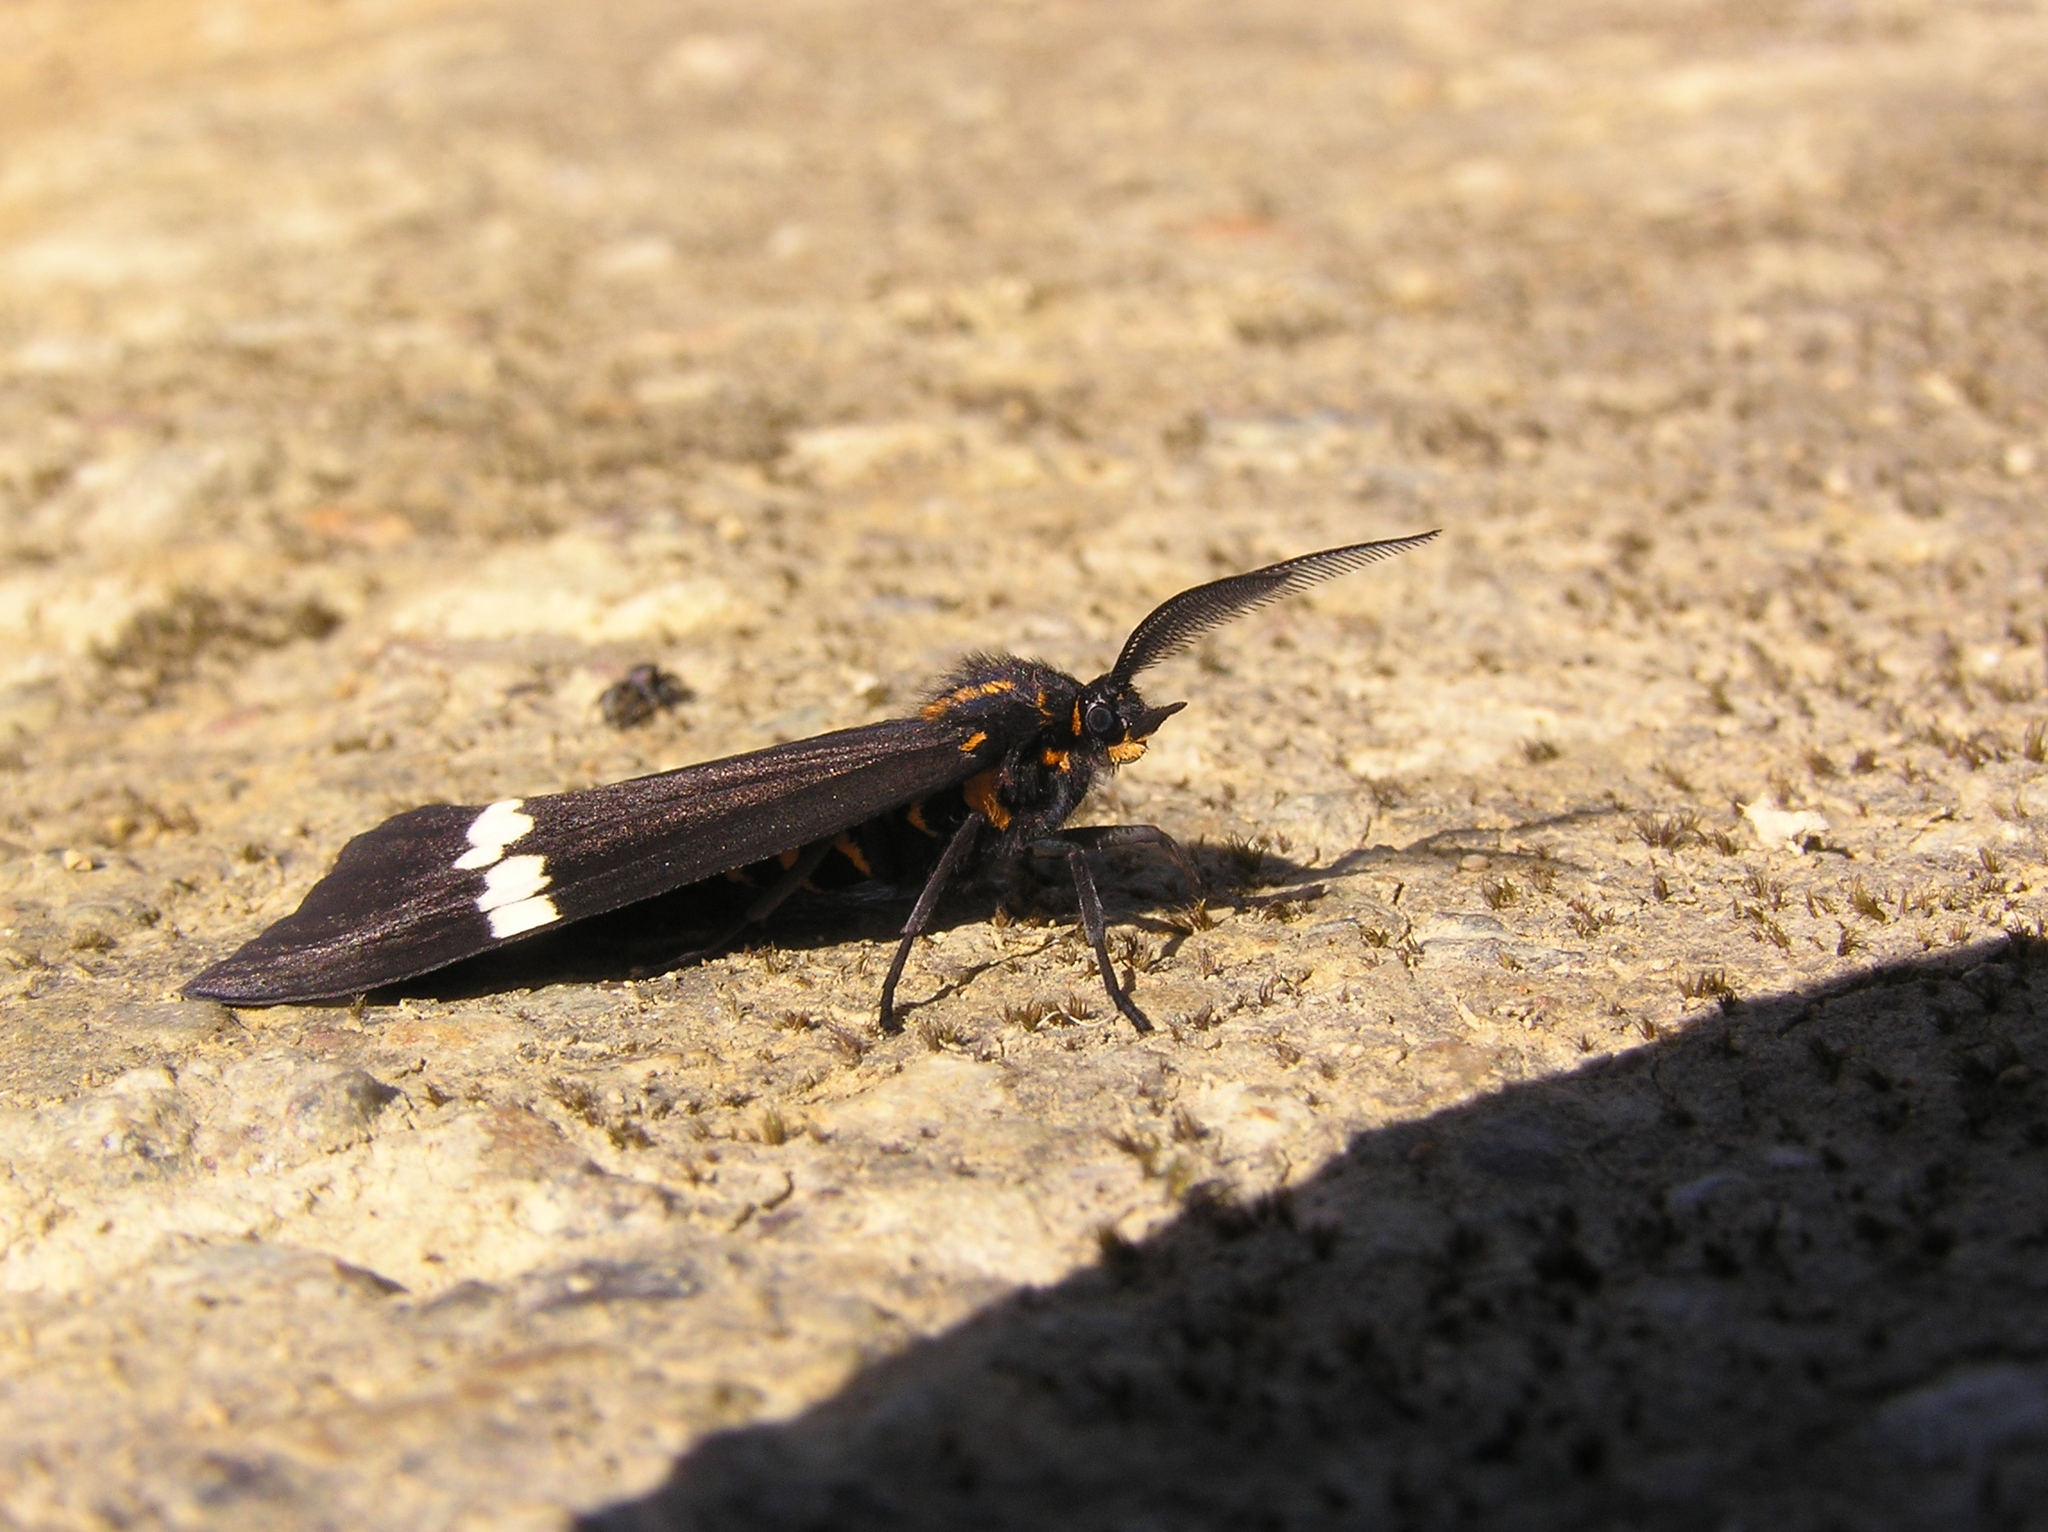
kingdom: Animalia
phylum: Arthropoda
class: Insecta
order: Lepidoptera
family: Erebidae
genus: Nyctemera
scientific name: Nyctemera annulatum
